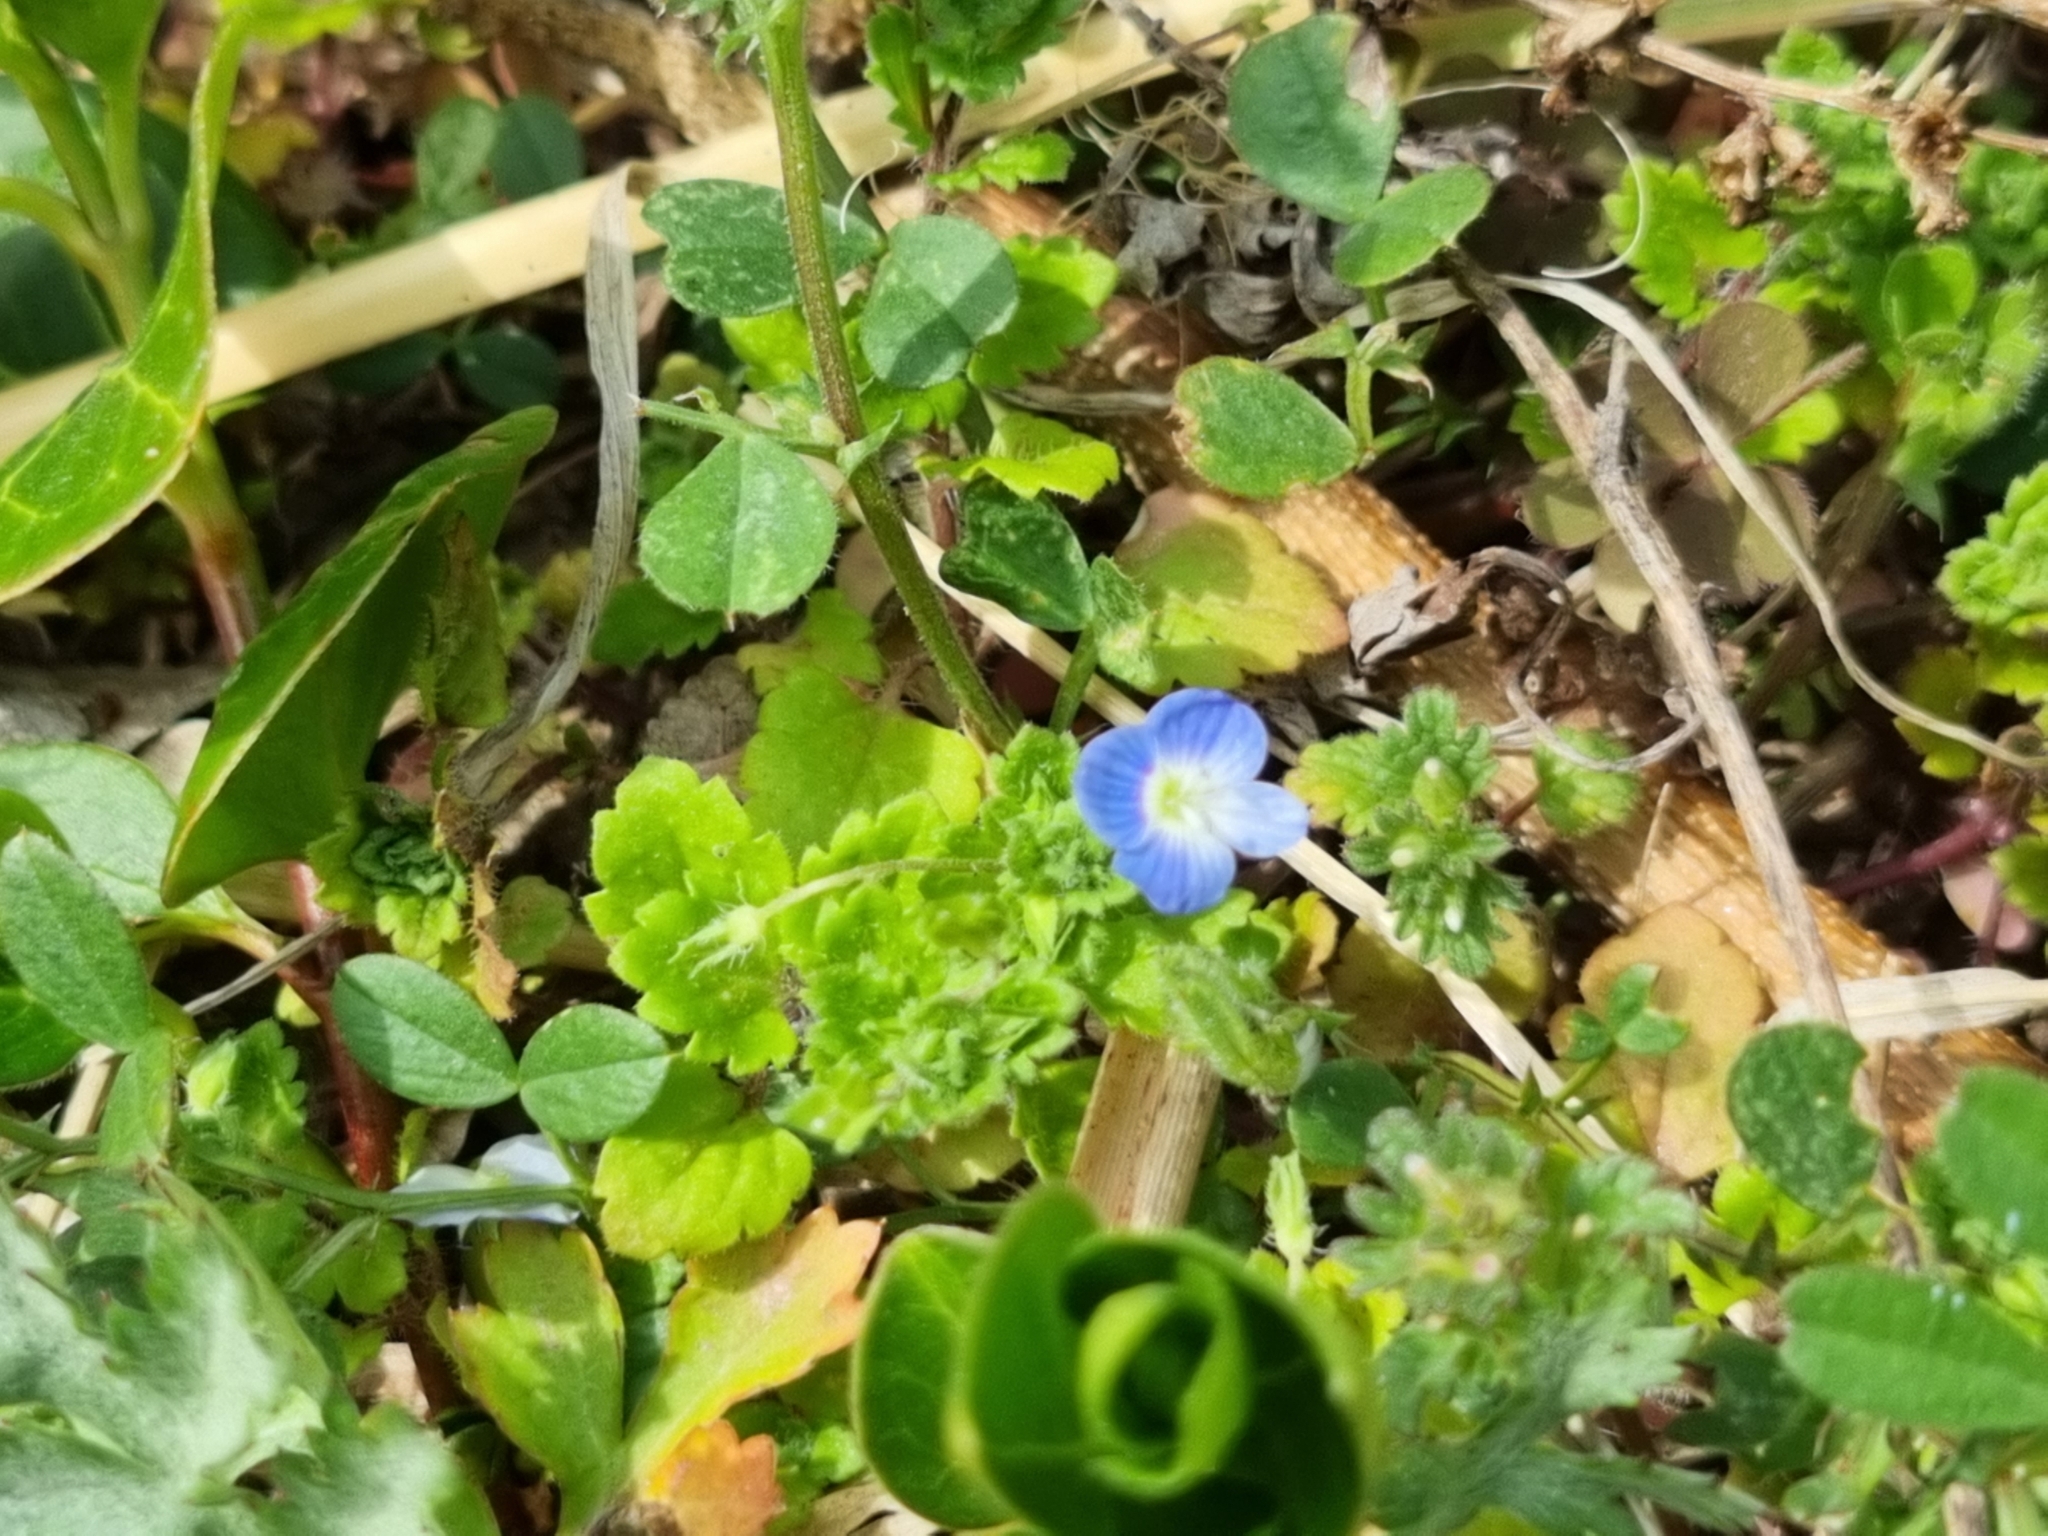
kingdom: Plantae
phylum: Tracheophyta
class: Magnoliopsida
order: Lamiales
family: Plantaginaceae
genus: Veronica
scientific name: Veronica persica
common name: Common field-speedwell
